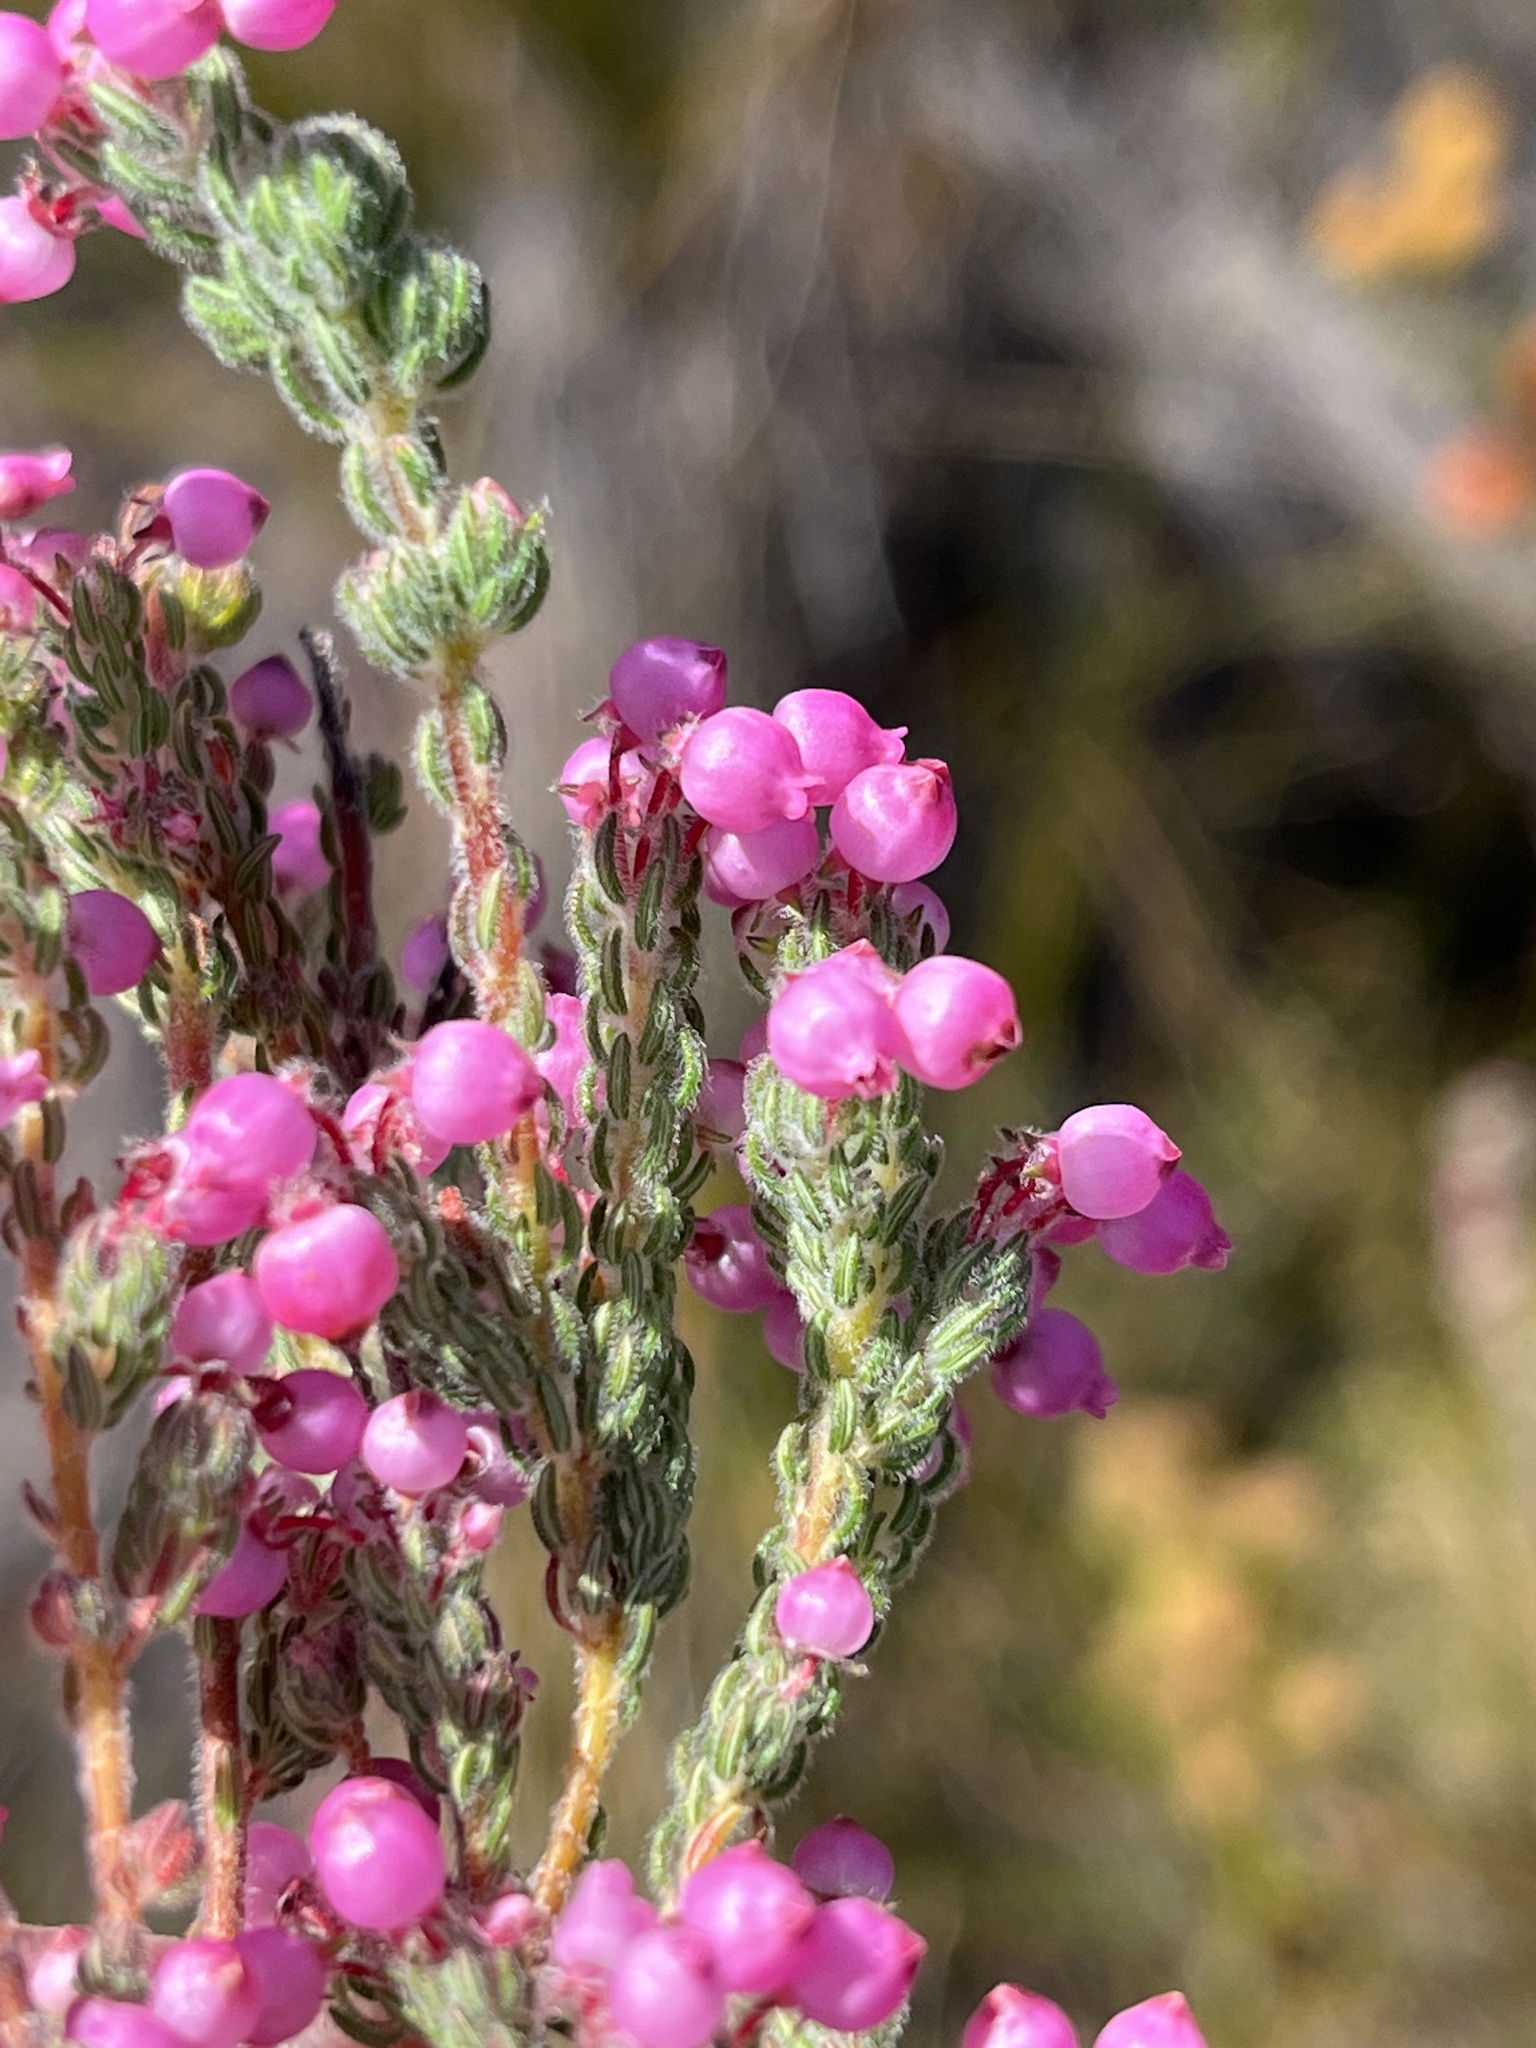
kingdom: Plantae
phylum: Tracheophyta
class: Magnoliopsida
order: Ericales
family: Ericaceae
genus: Erica
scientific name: Erica bergiana
